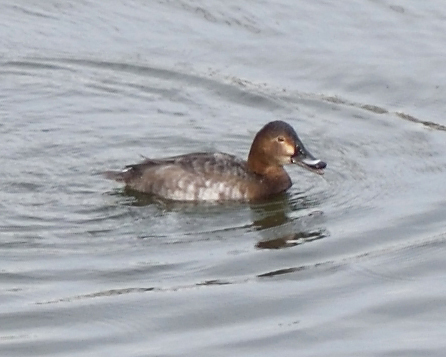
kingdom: Animalia
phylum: Chordata
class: Aves
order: Anseriformes
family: Anatidae
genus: Aythya
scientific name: Aythya ferina
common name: Common pochard
